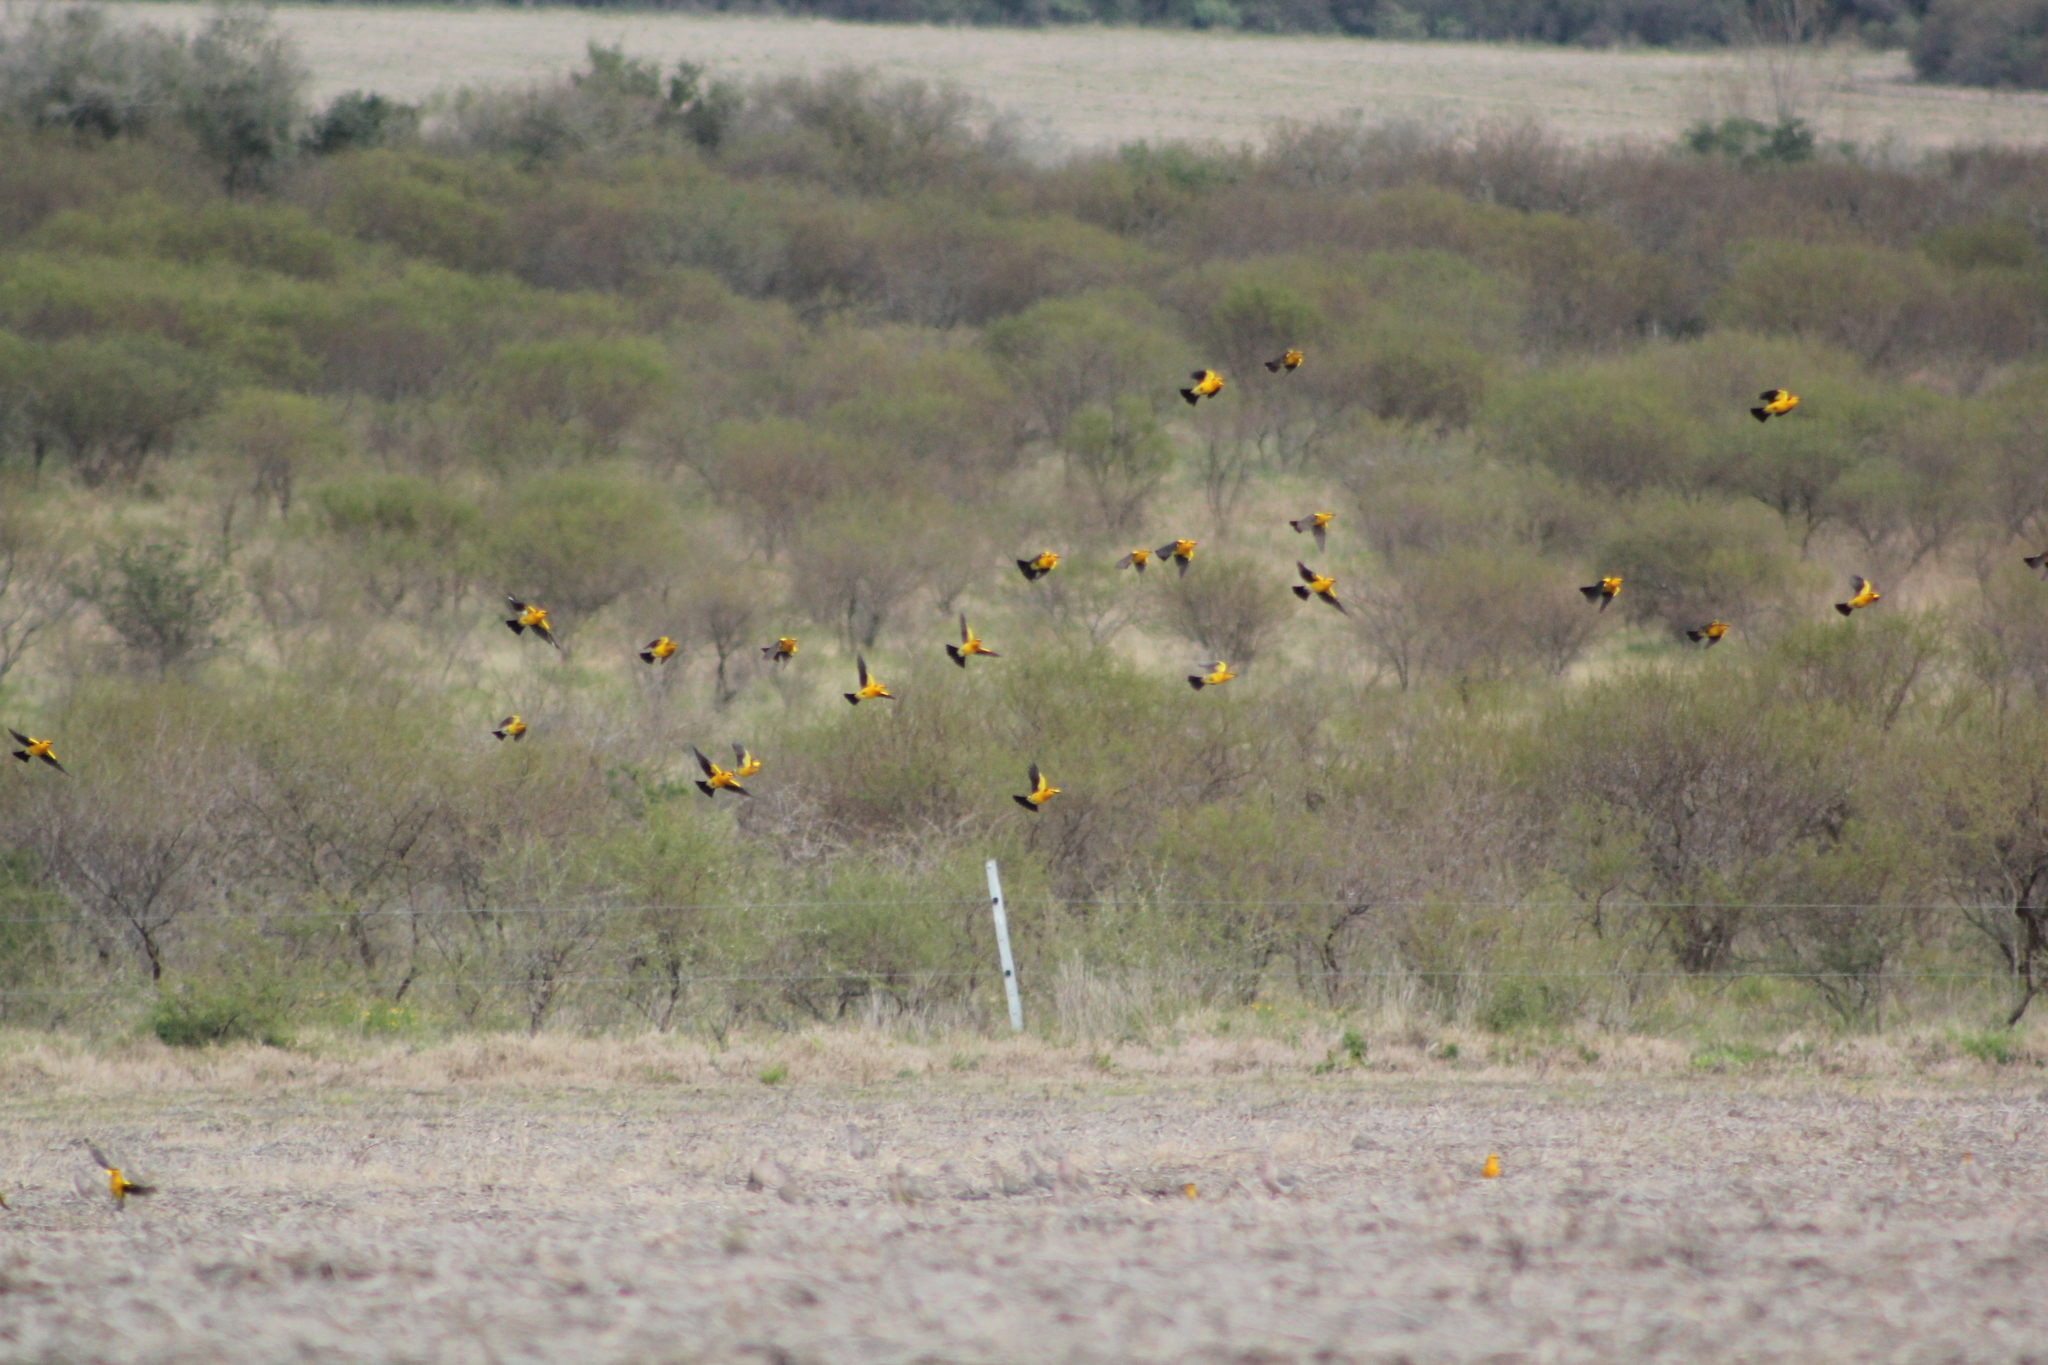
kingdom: Animalia
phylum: Chordata
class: Aves
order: Passeriformes
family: Icteridae
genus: Xanthopsar
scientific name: Xanthopsar flavus
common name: Saffron-cowled blackbird
